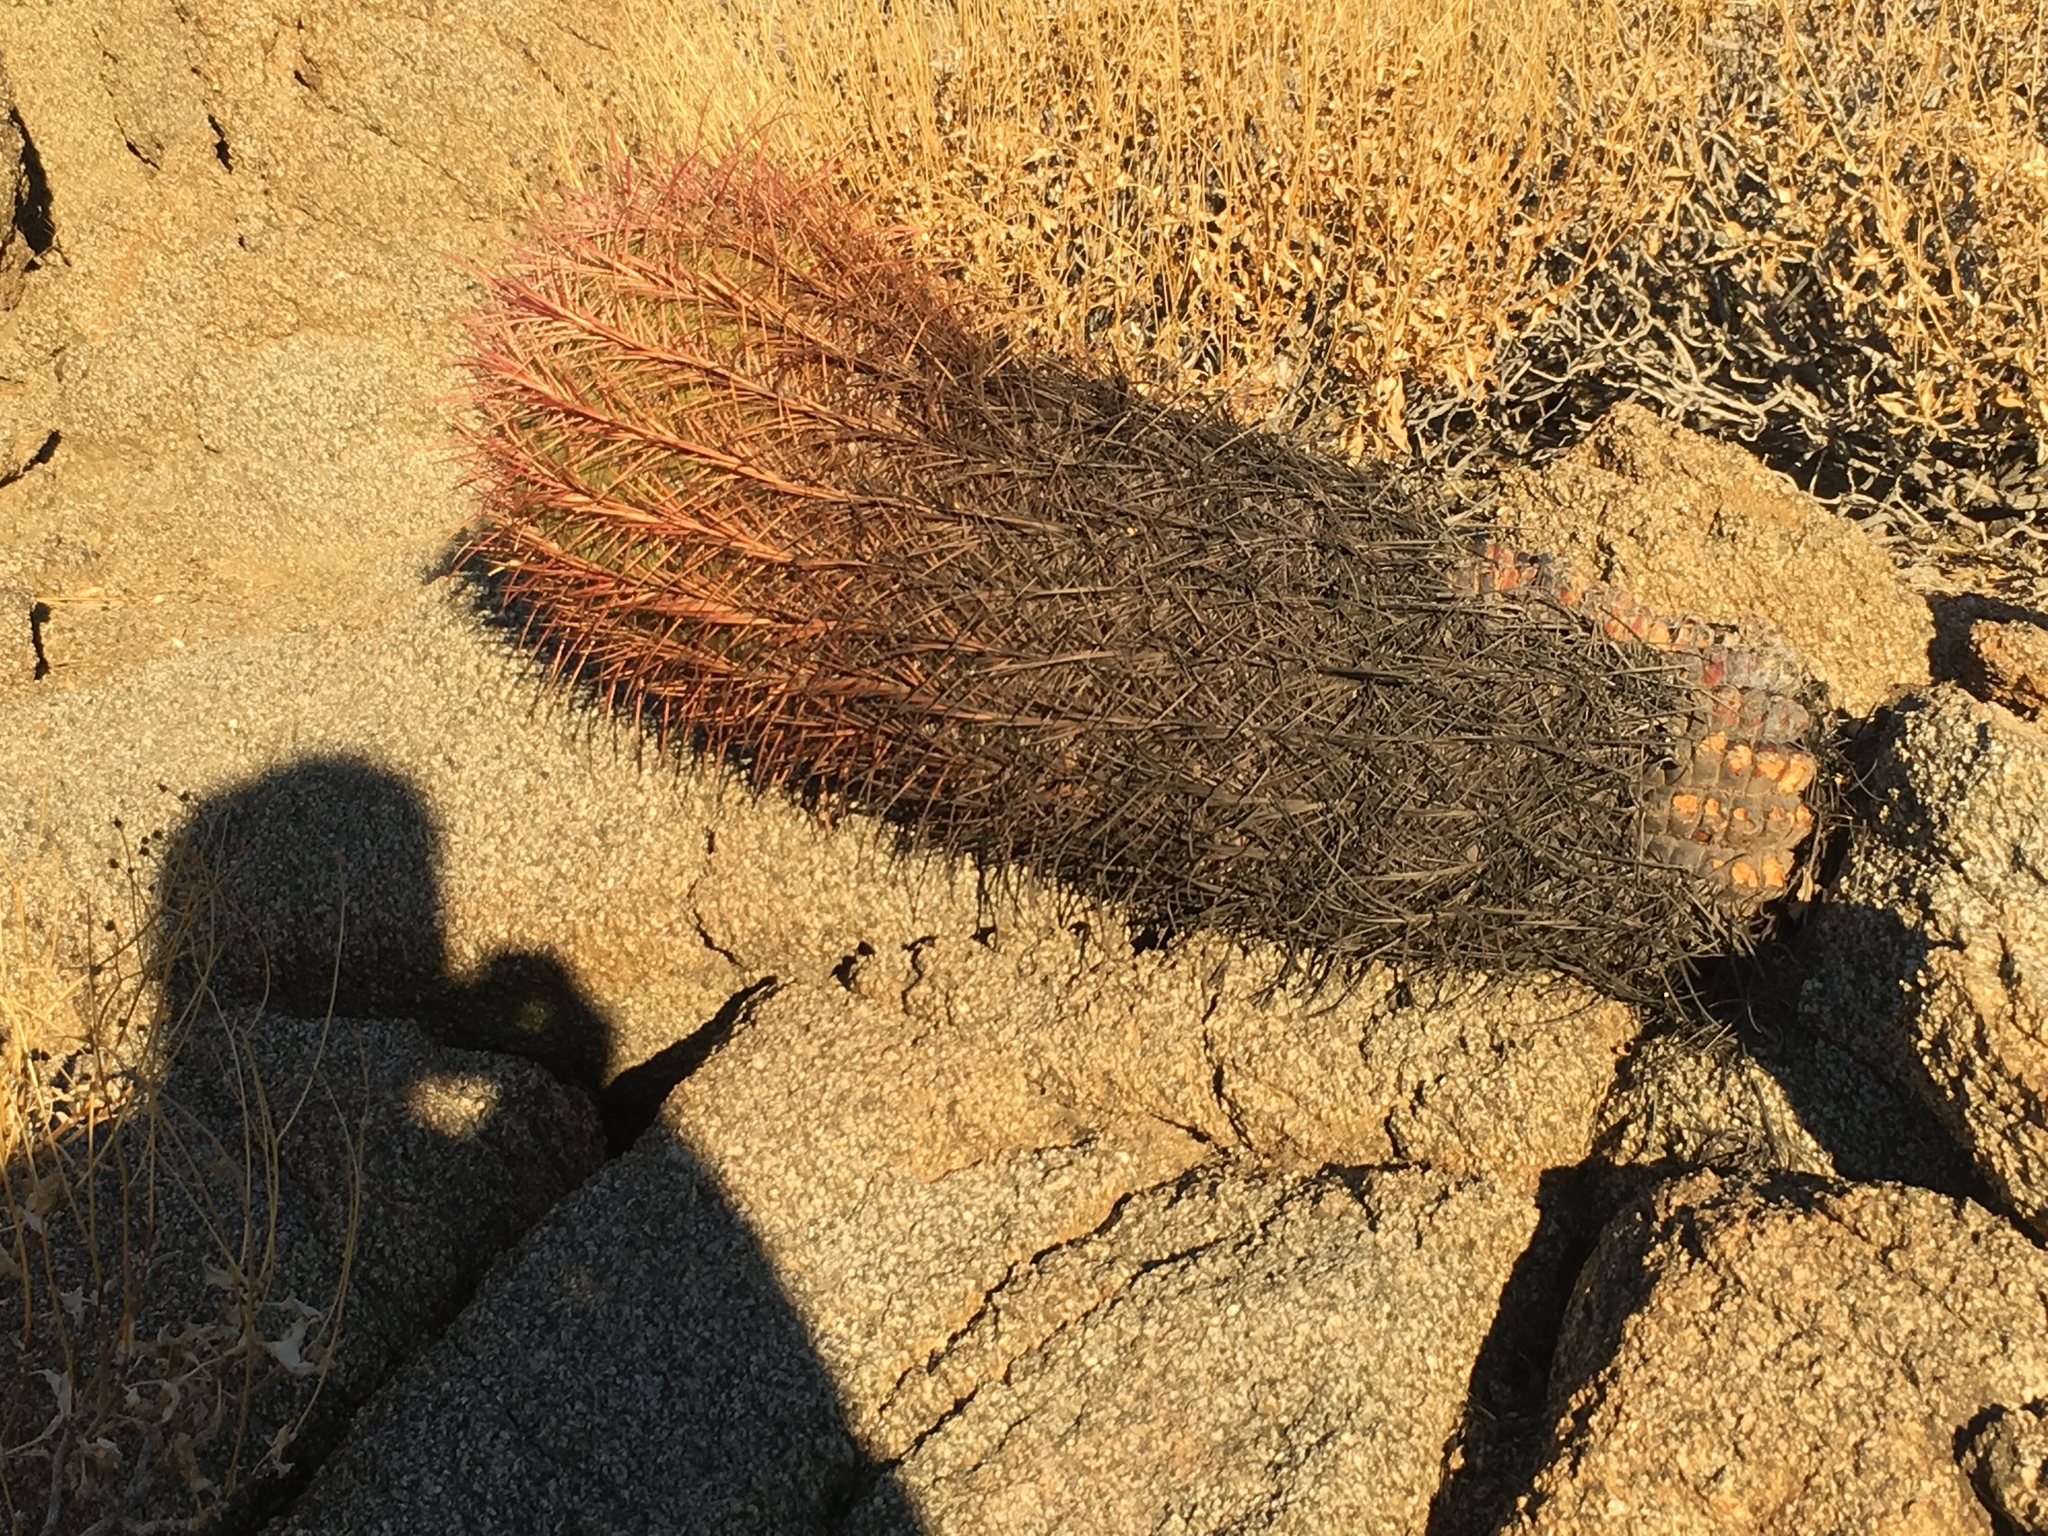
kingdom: Plantae
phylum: Tracheophyta
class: Magnoliopsida
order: Caryophyllales
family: Cactaceae
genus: Ferocactus
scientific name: Ferocactus cylindraceus
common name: California barrel cactus
